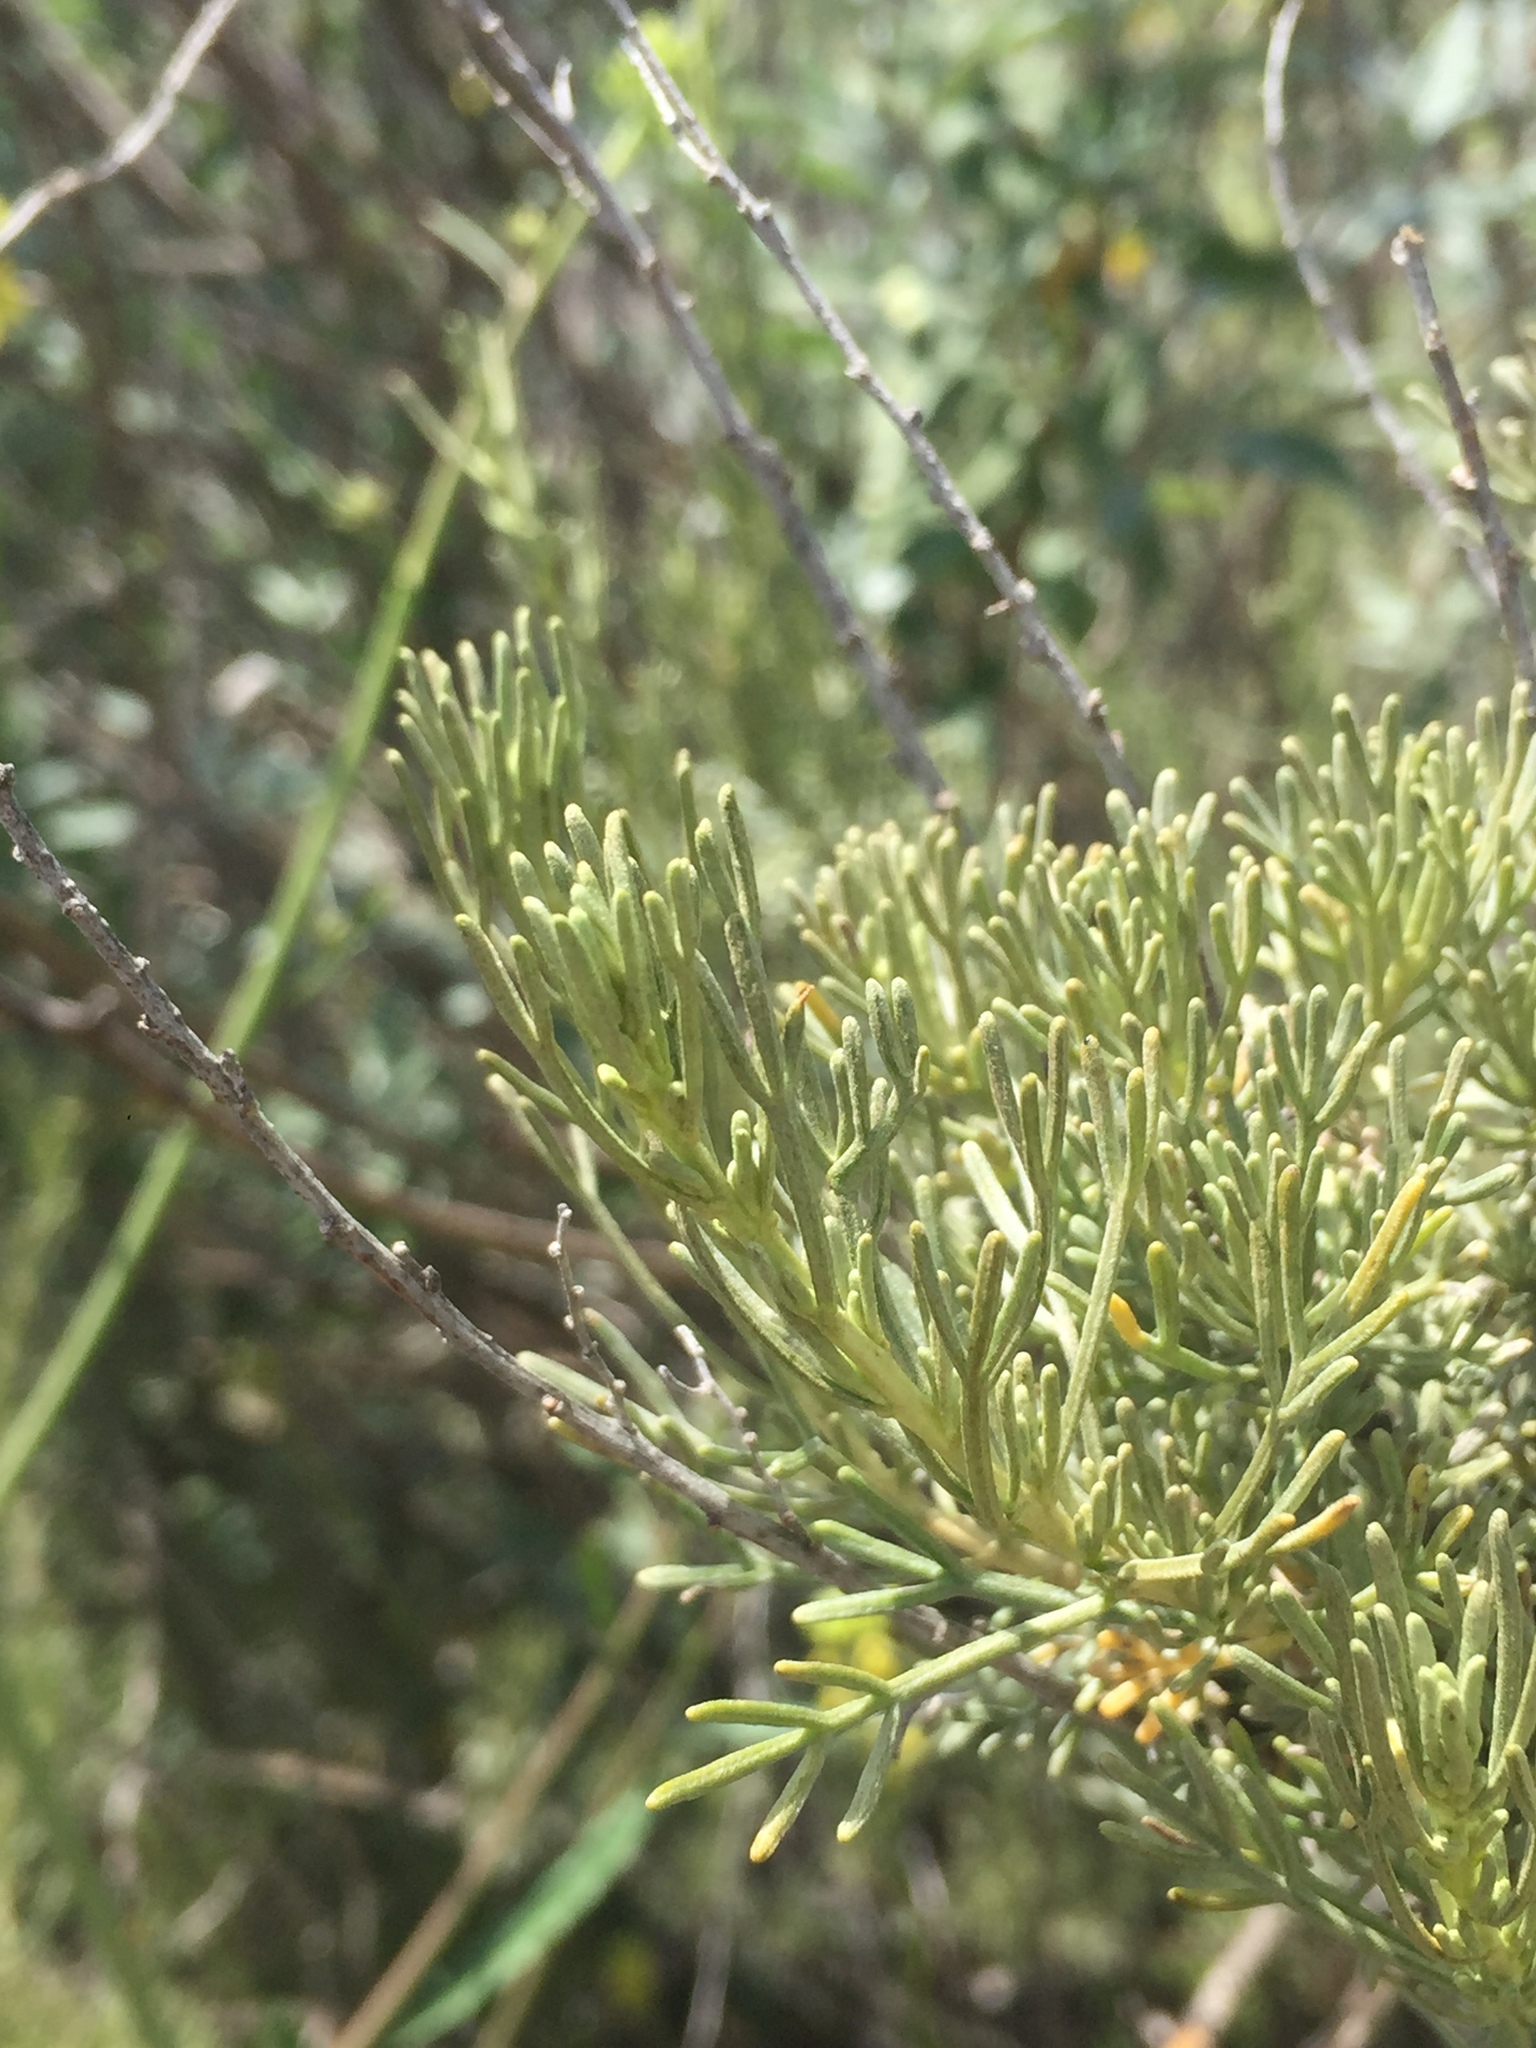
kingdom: Plantae
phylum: Tracheophyta
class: Magnoliopsida
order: Asterales
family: Asteraceae
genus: Artemisia
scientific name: Artemisia californica
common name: California sagebrush
